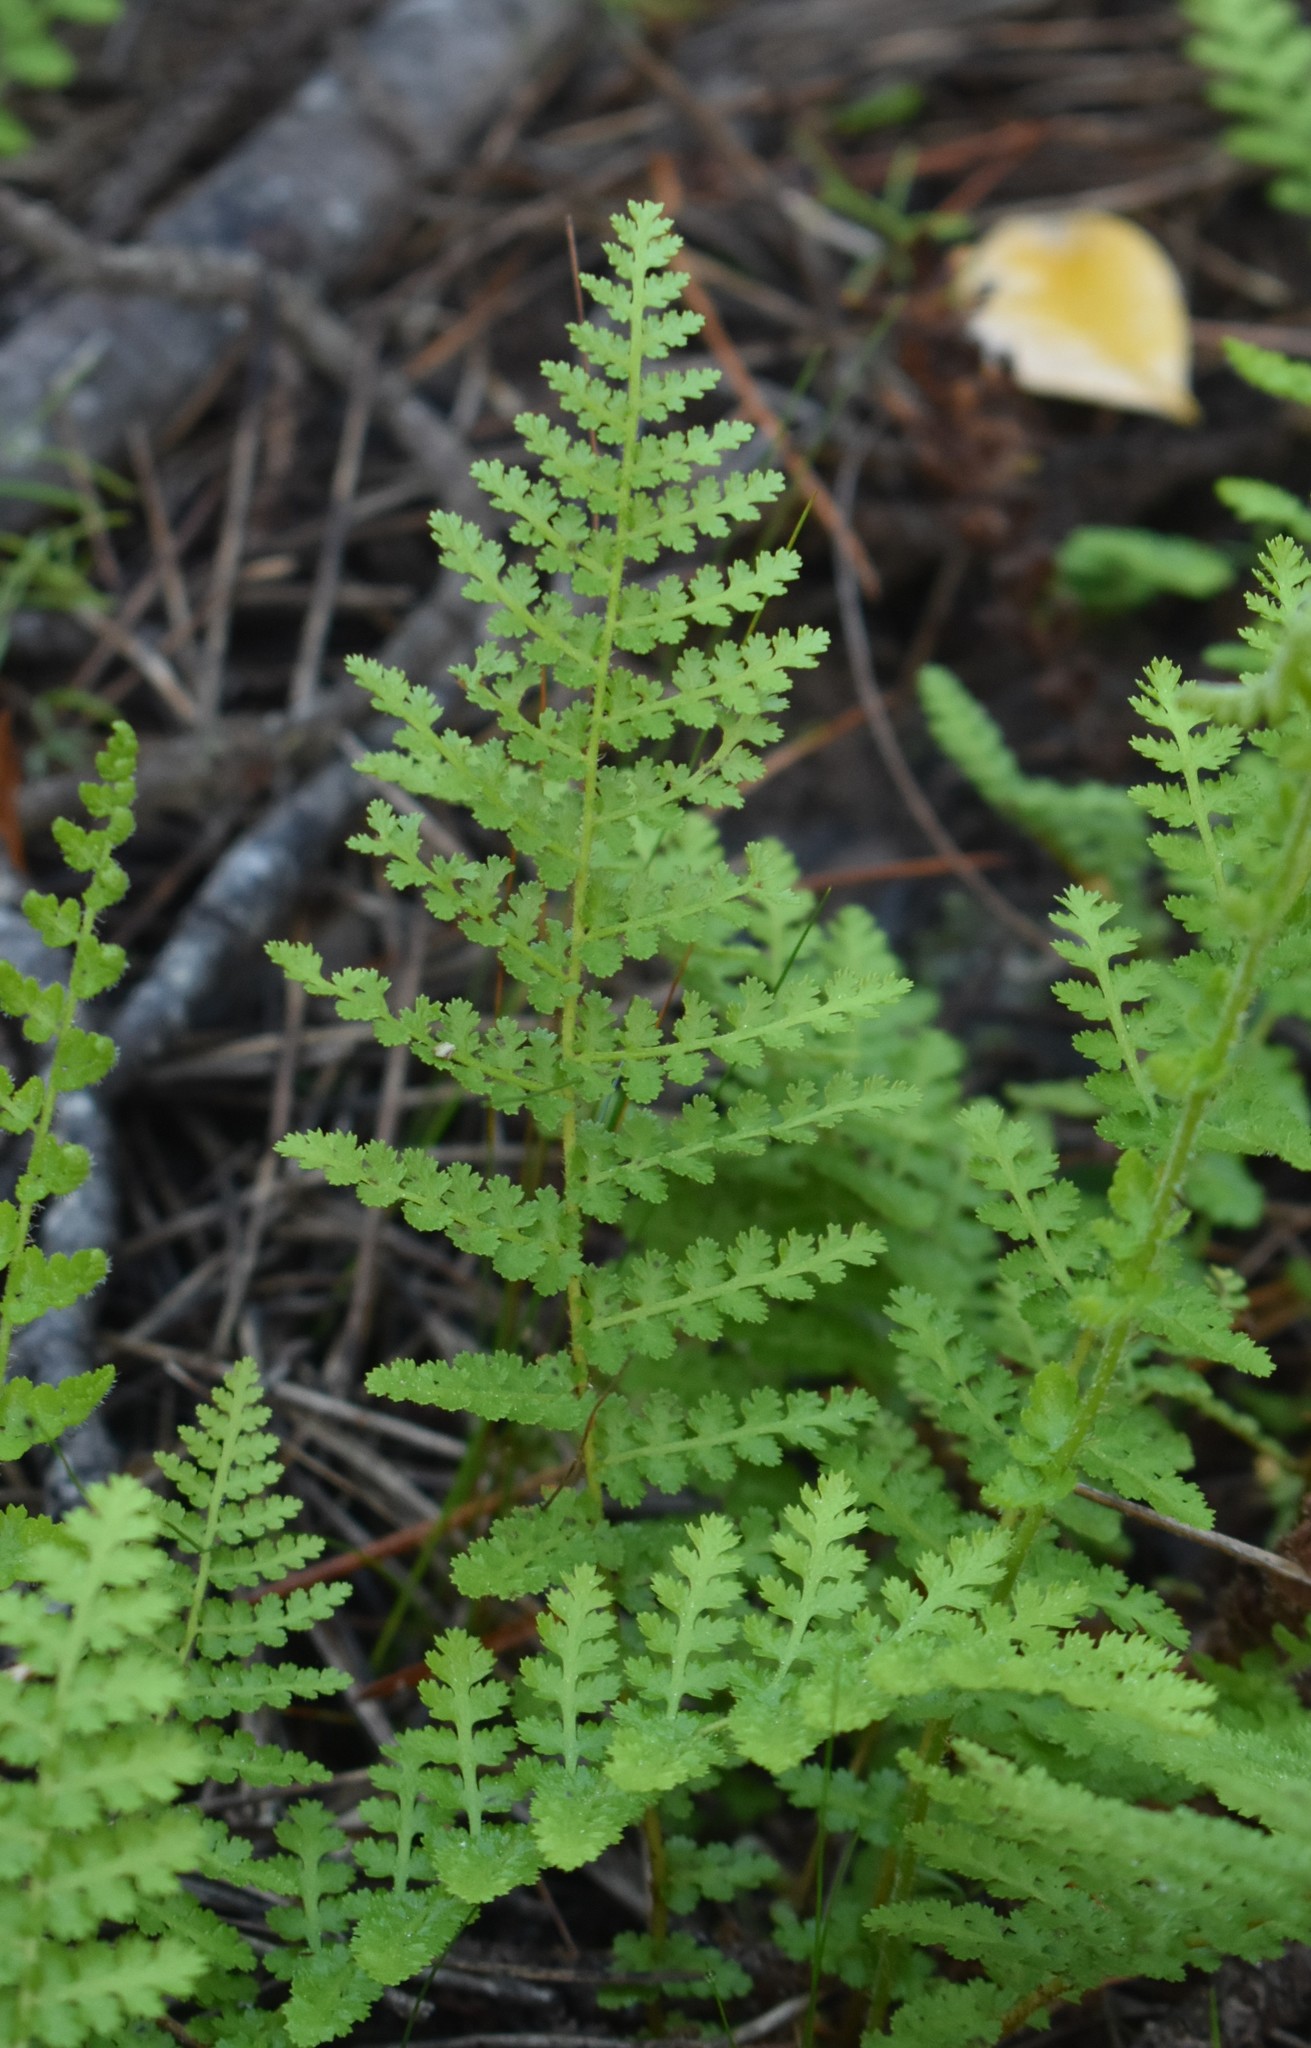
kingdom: Plantae
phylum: Tracheophyta
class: Polypodiopsida
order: Schizaeales
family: Anemiaceae
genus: Anemia
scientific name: Anemia caffrorum
